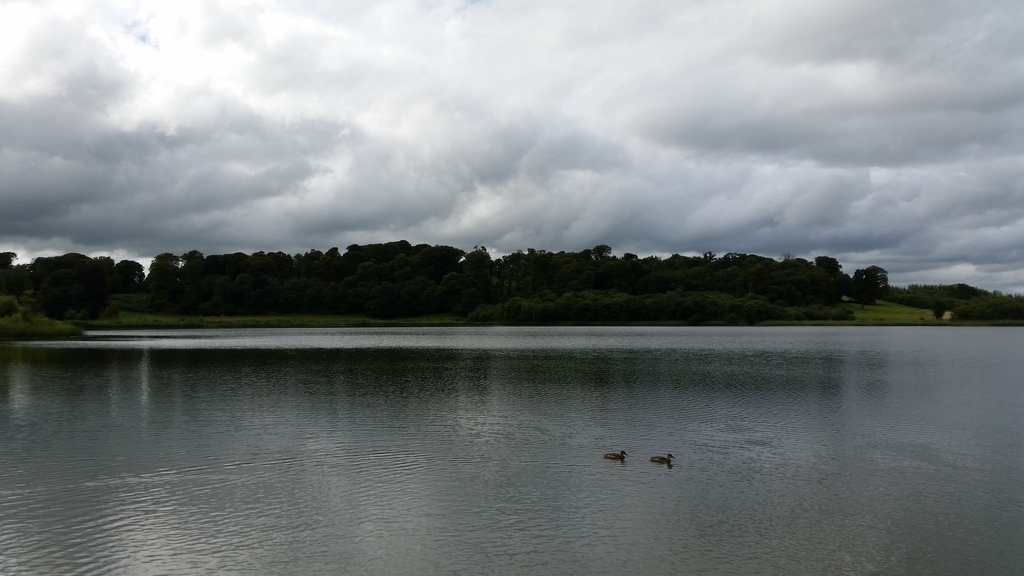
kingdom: Animalia
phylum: Chordata
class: Aves
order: Anseriformes
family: Anatidae
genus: Anas
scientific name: Anas platyrhynchos
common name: Mallard
